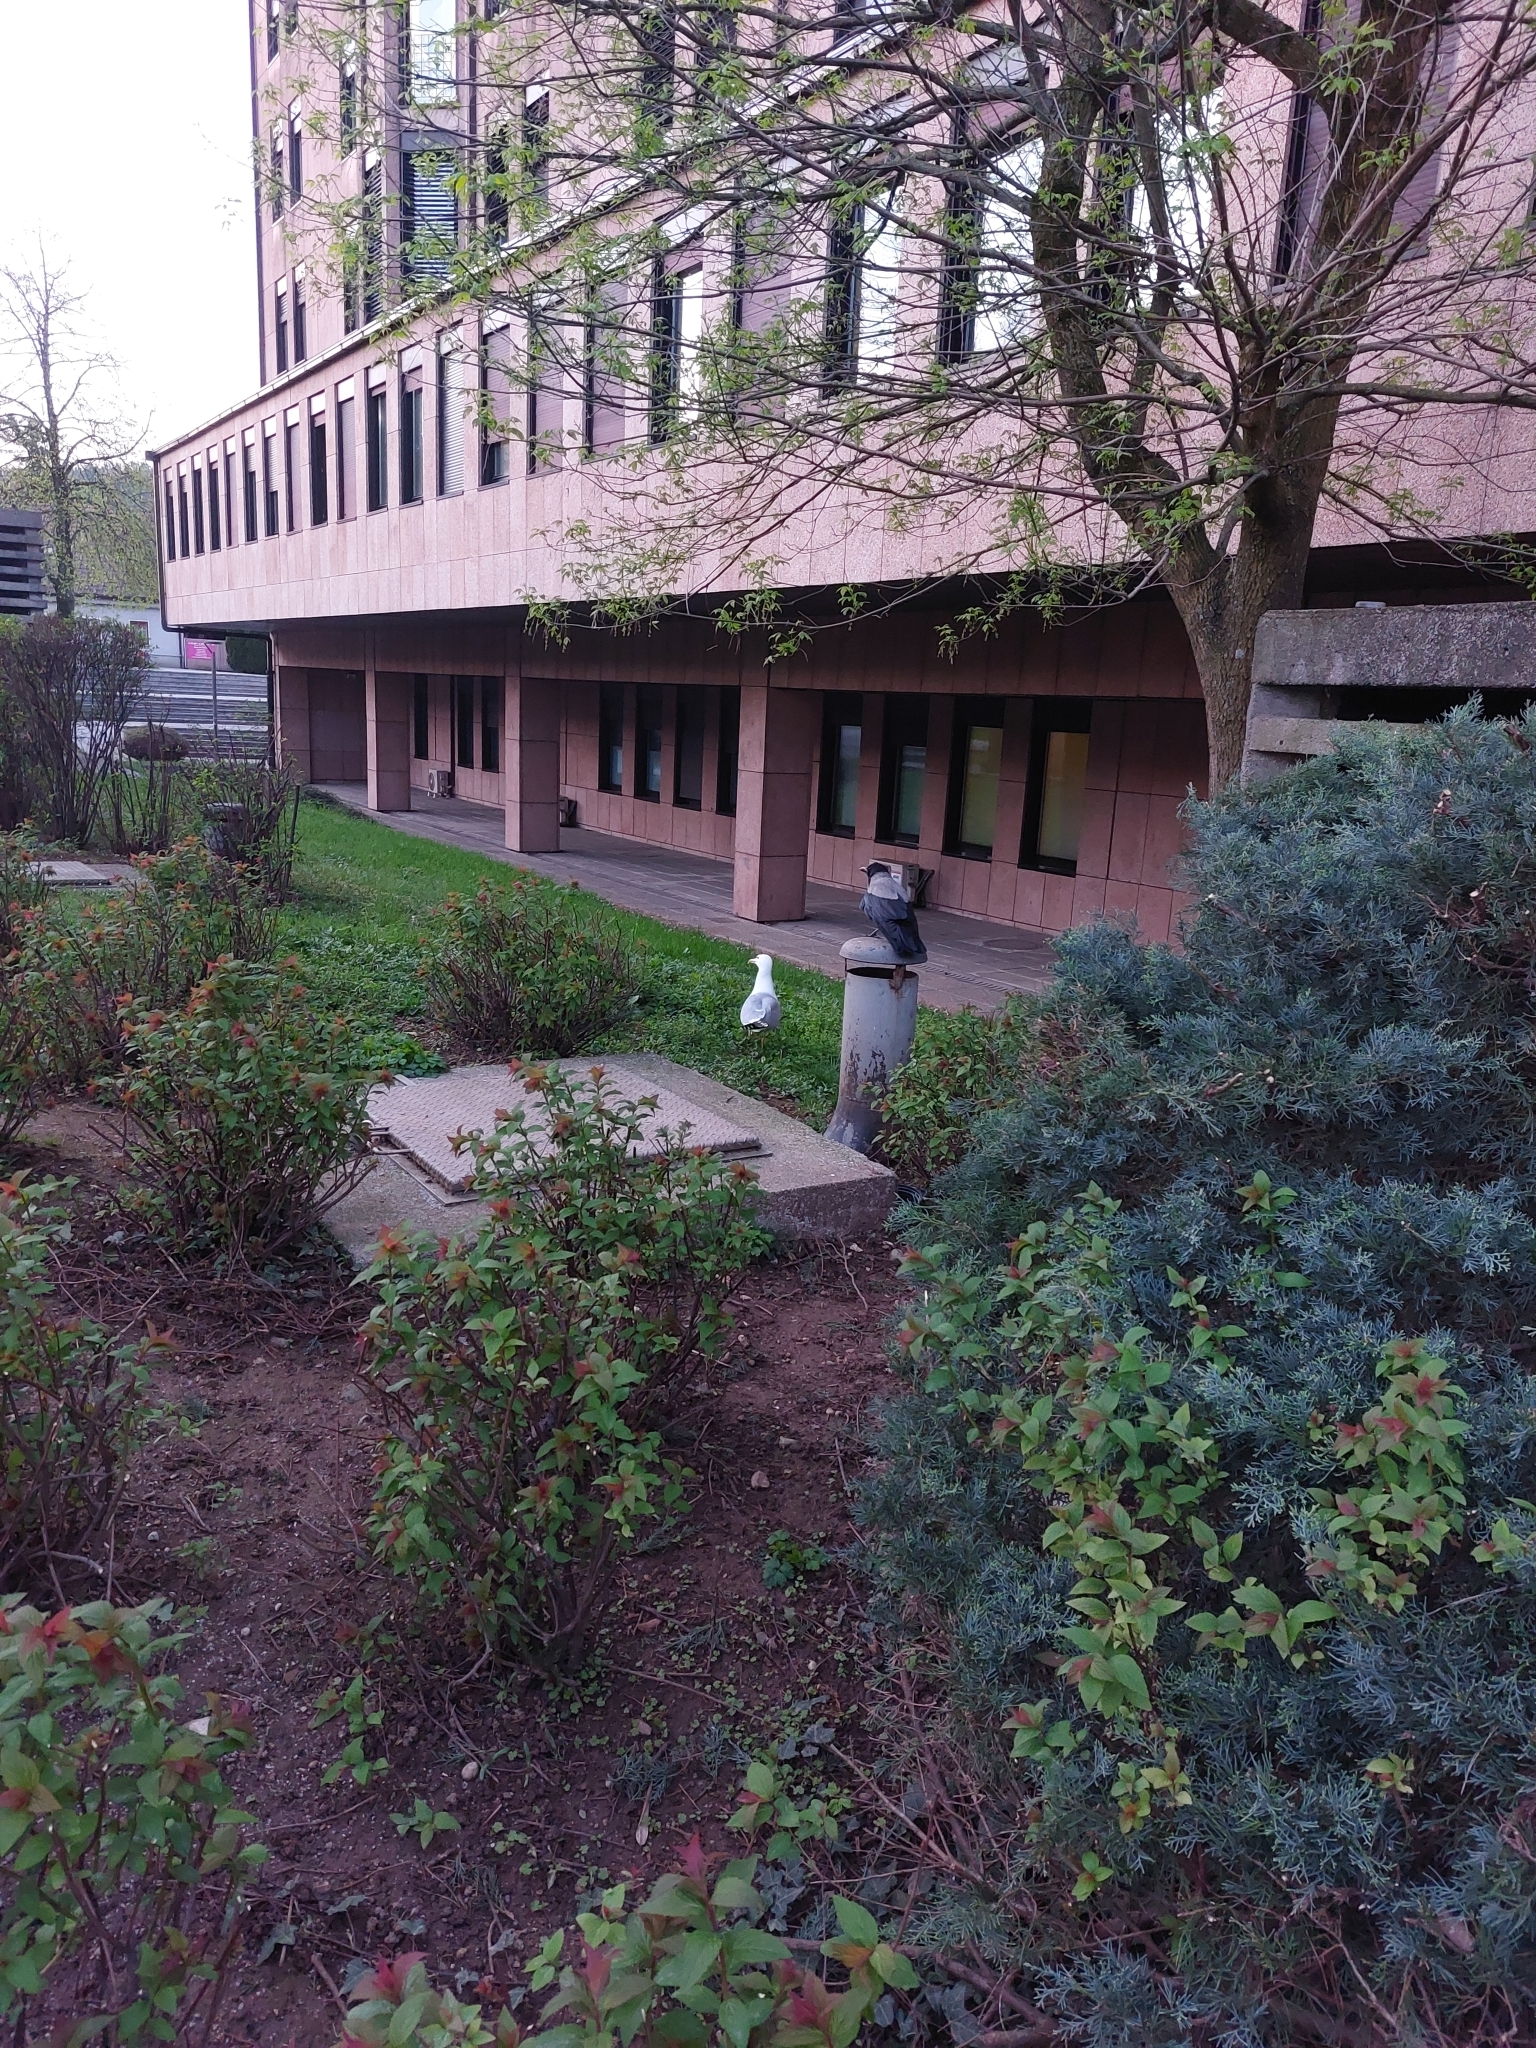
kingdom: Animalia
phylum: Chordata
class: Aves
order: Passeriformes
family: Corvidae
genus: Corvus
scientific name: Corvus cornix
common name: Hooded crow
